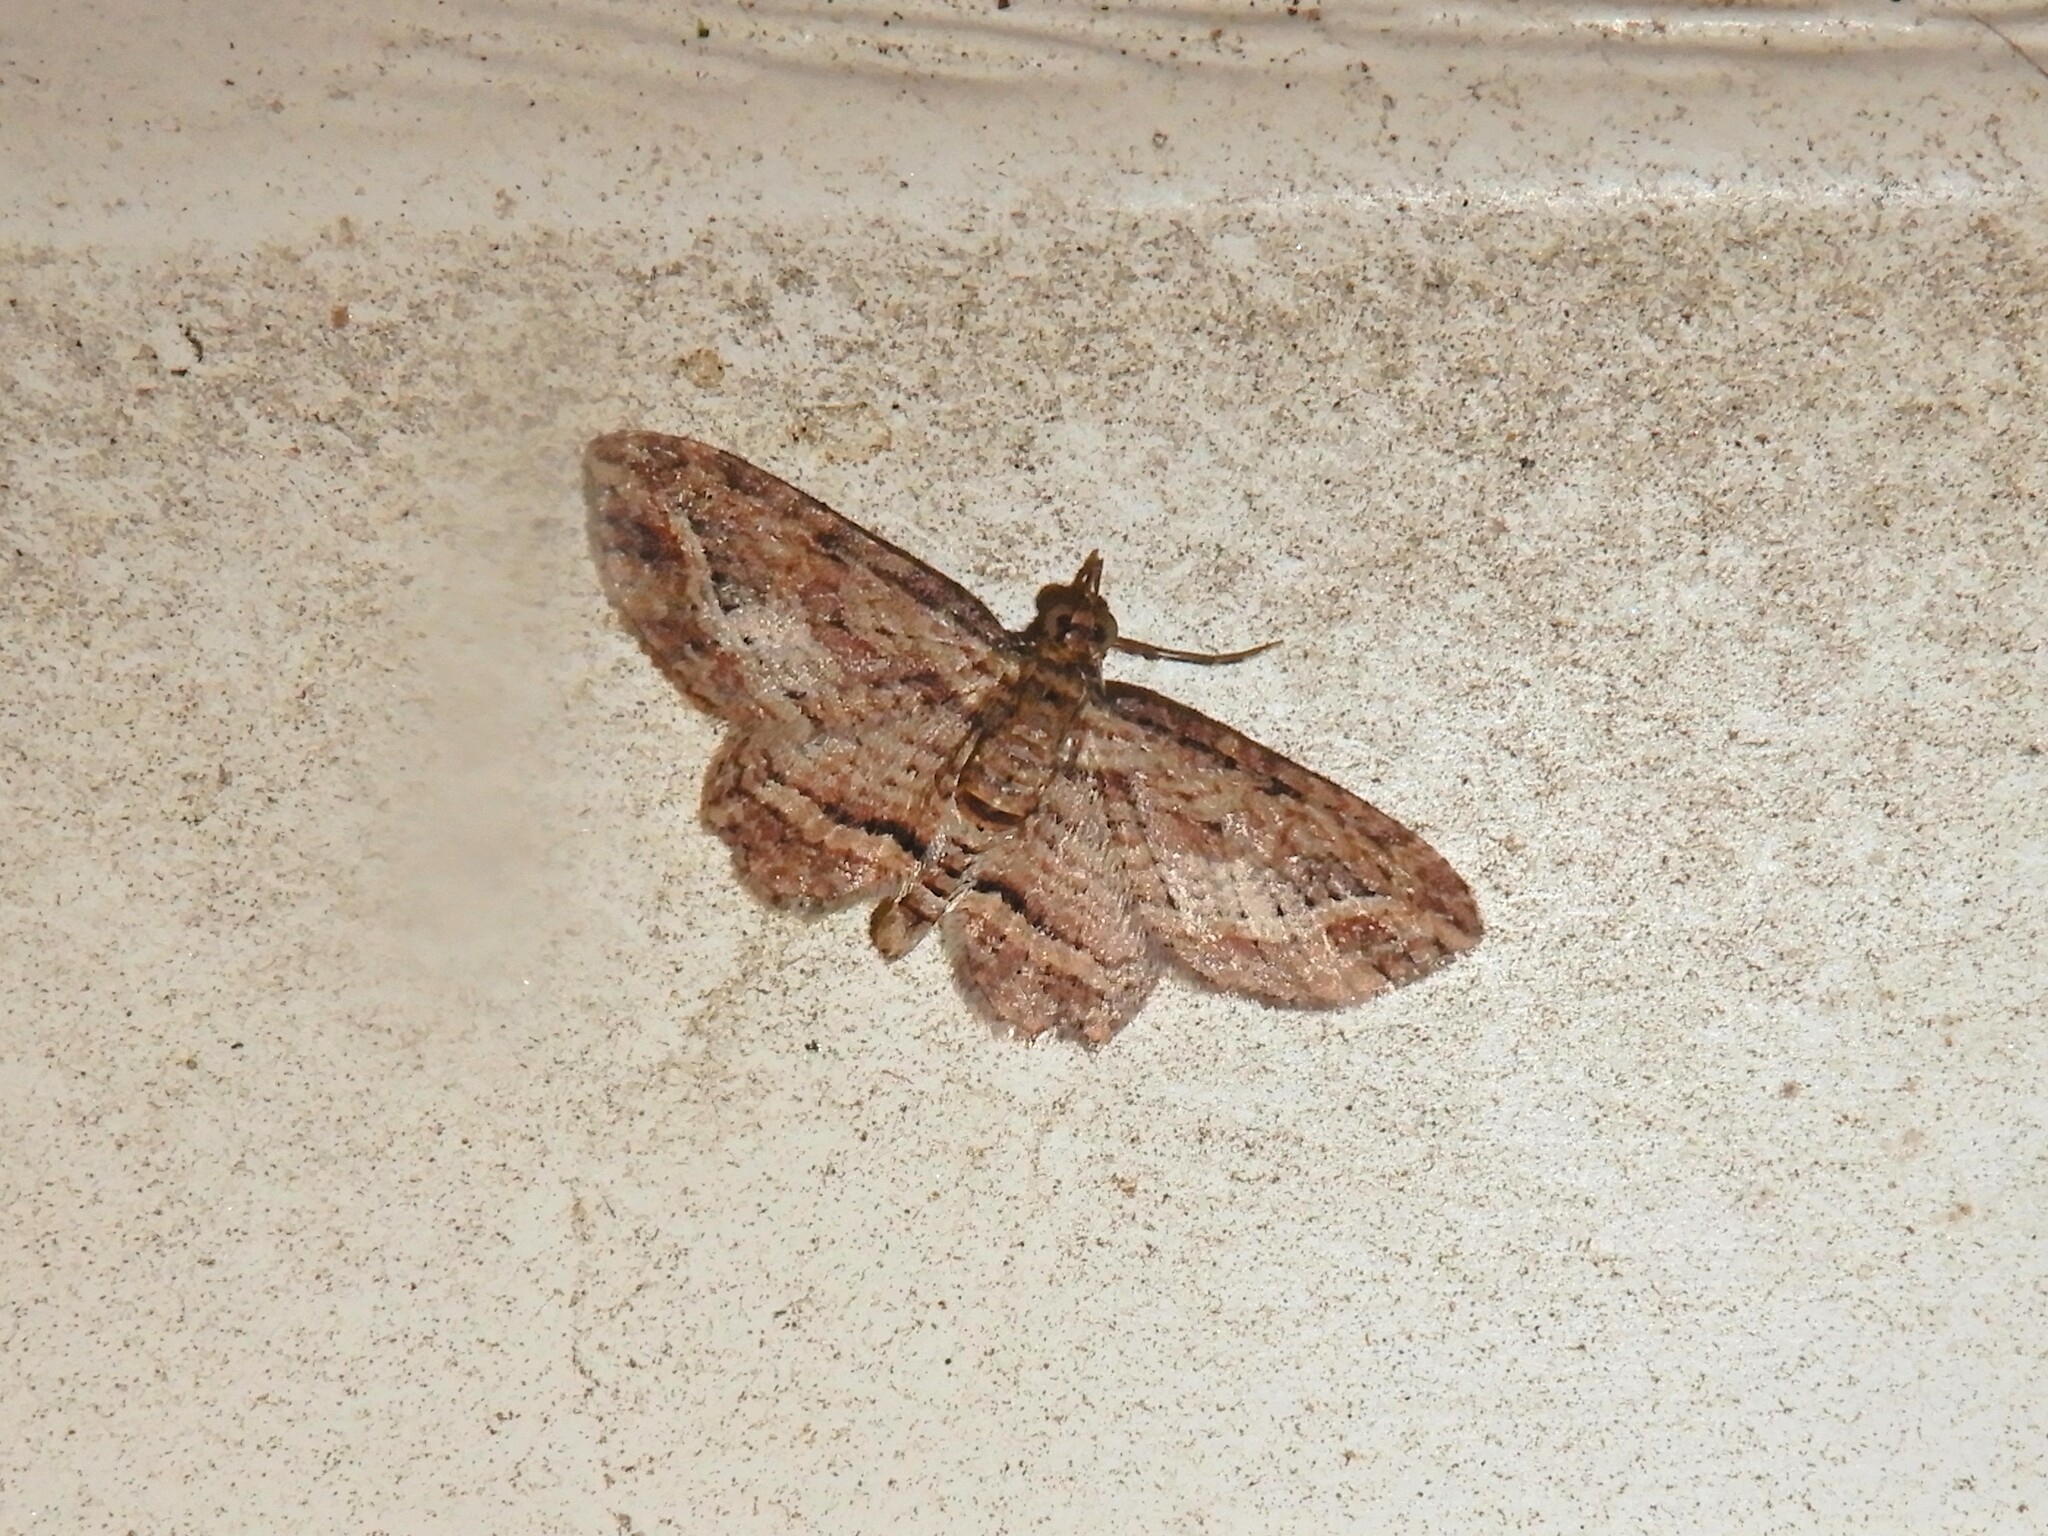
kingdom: Animalia
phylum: Arthropoda
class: Insecta
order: Lepidoptera
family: Geometridae
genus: Chloroclystis
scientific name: Chloroclystis filata
